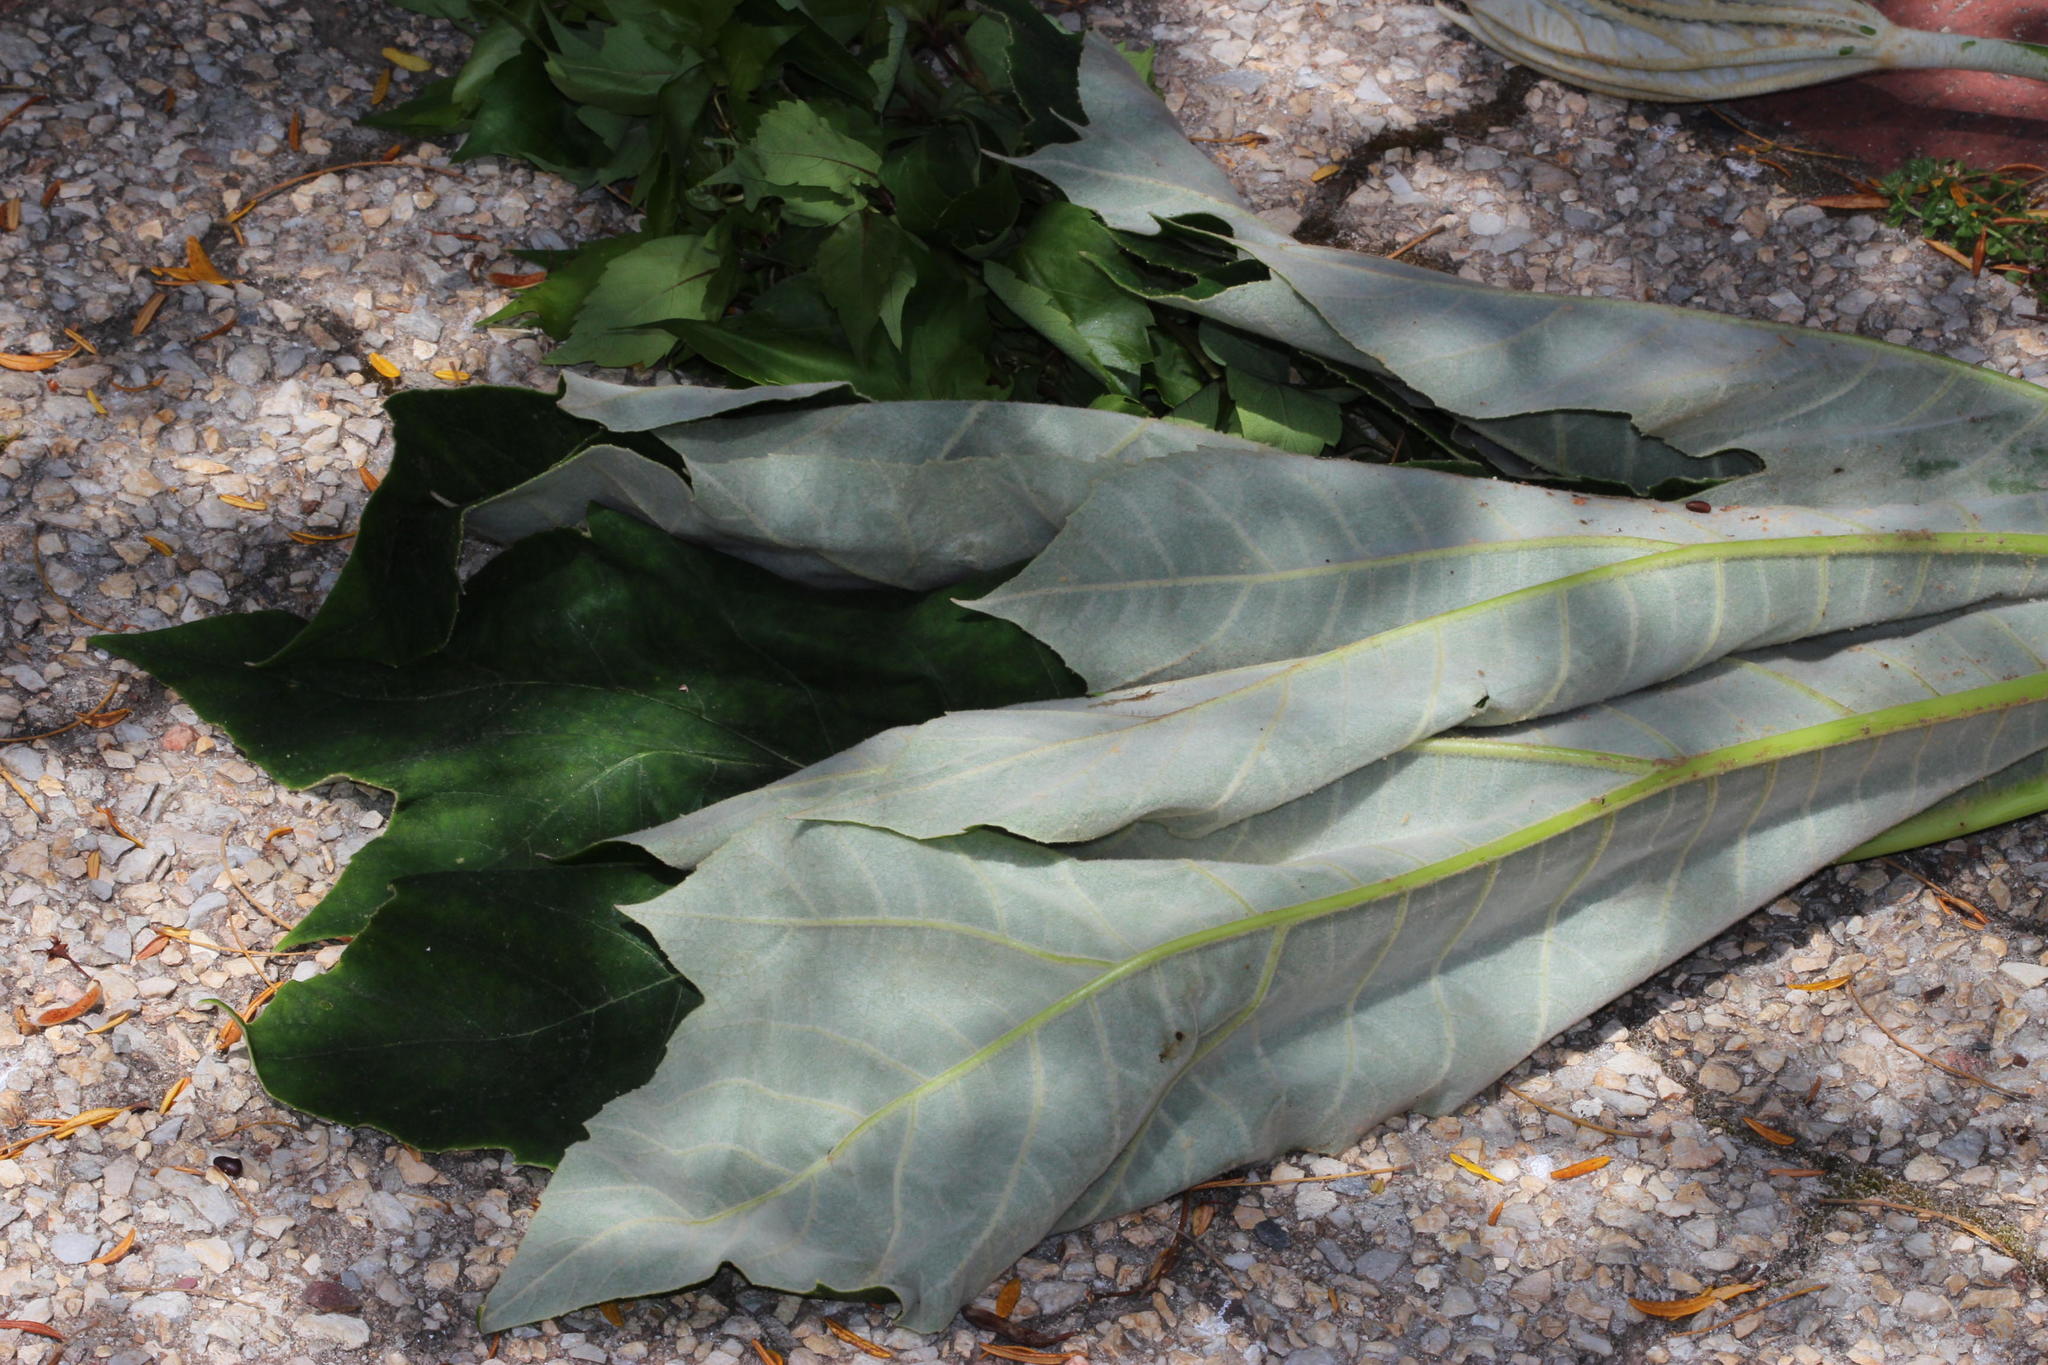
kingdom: Plantae
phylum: Tracheophyta
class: Magnoliopsida
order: Apiales
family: Araliaceae
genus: Tetrapanax
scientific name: Tetrapanax papyrifer
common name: Rice-paper plant
